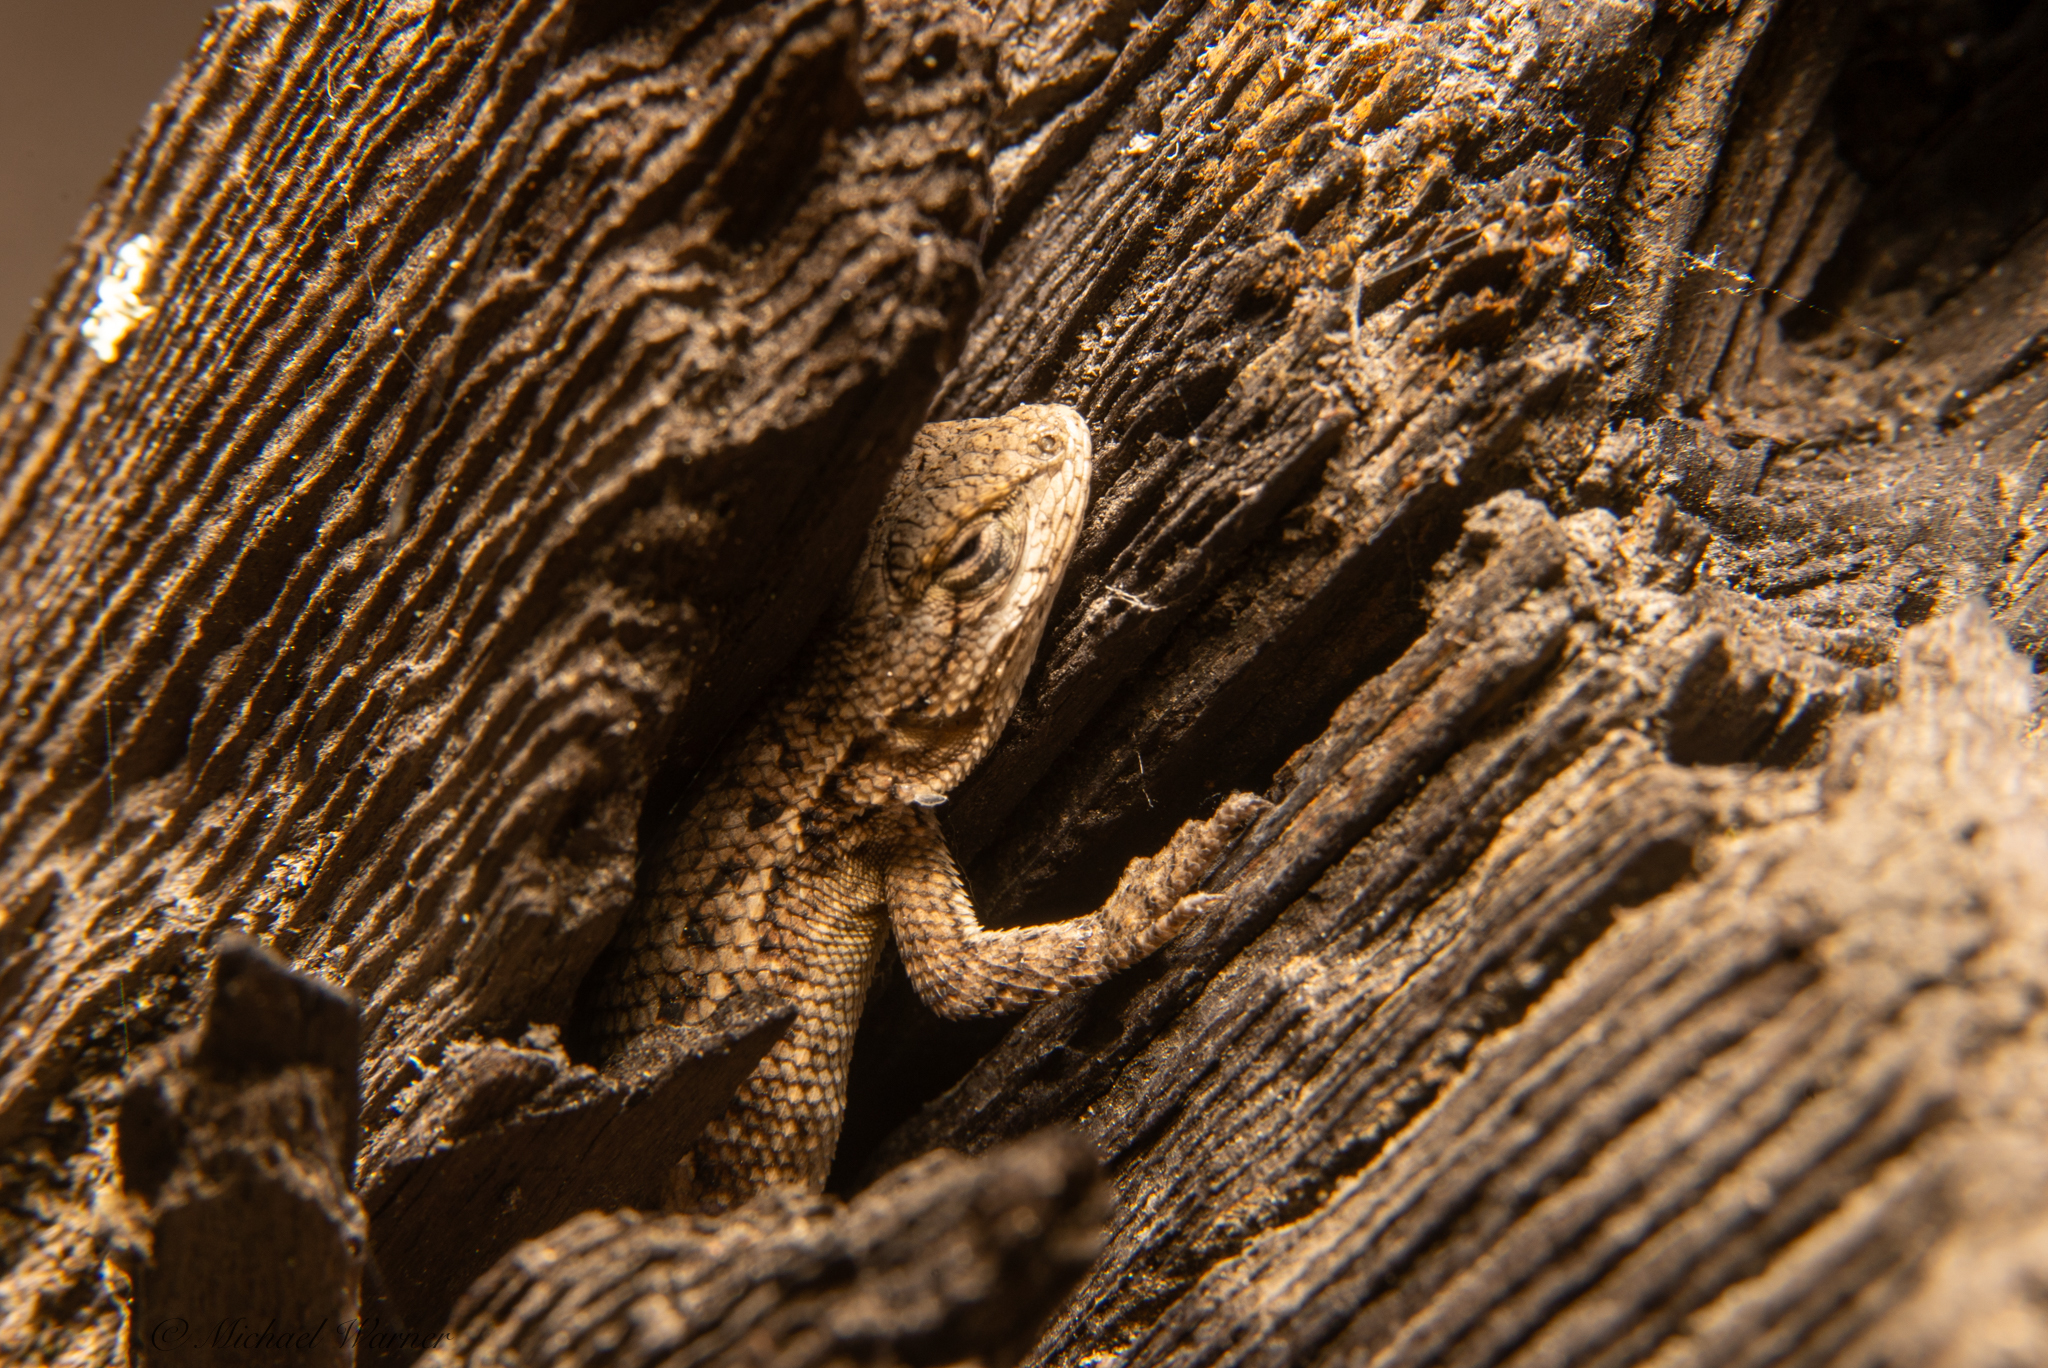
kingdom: Animalia
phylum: Chordata
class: Squamata
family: Phrynosomatidae
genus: Sceloporus
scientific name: Sceloporus occidentalis
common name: Western fence lizard
